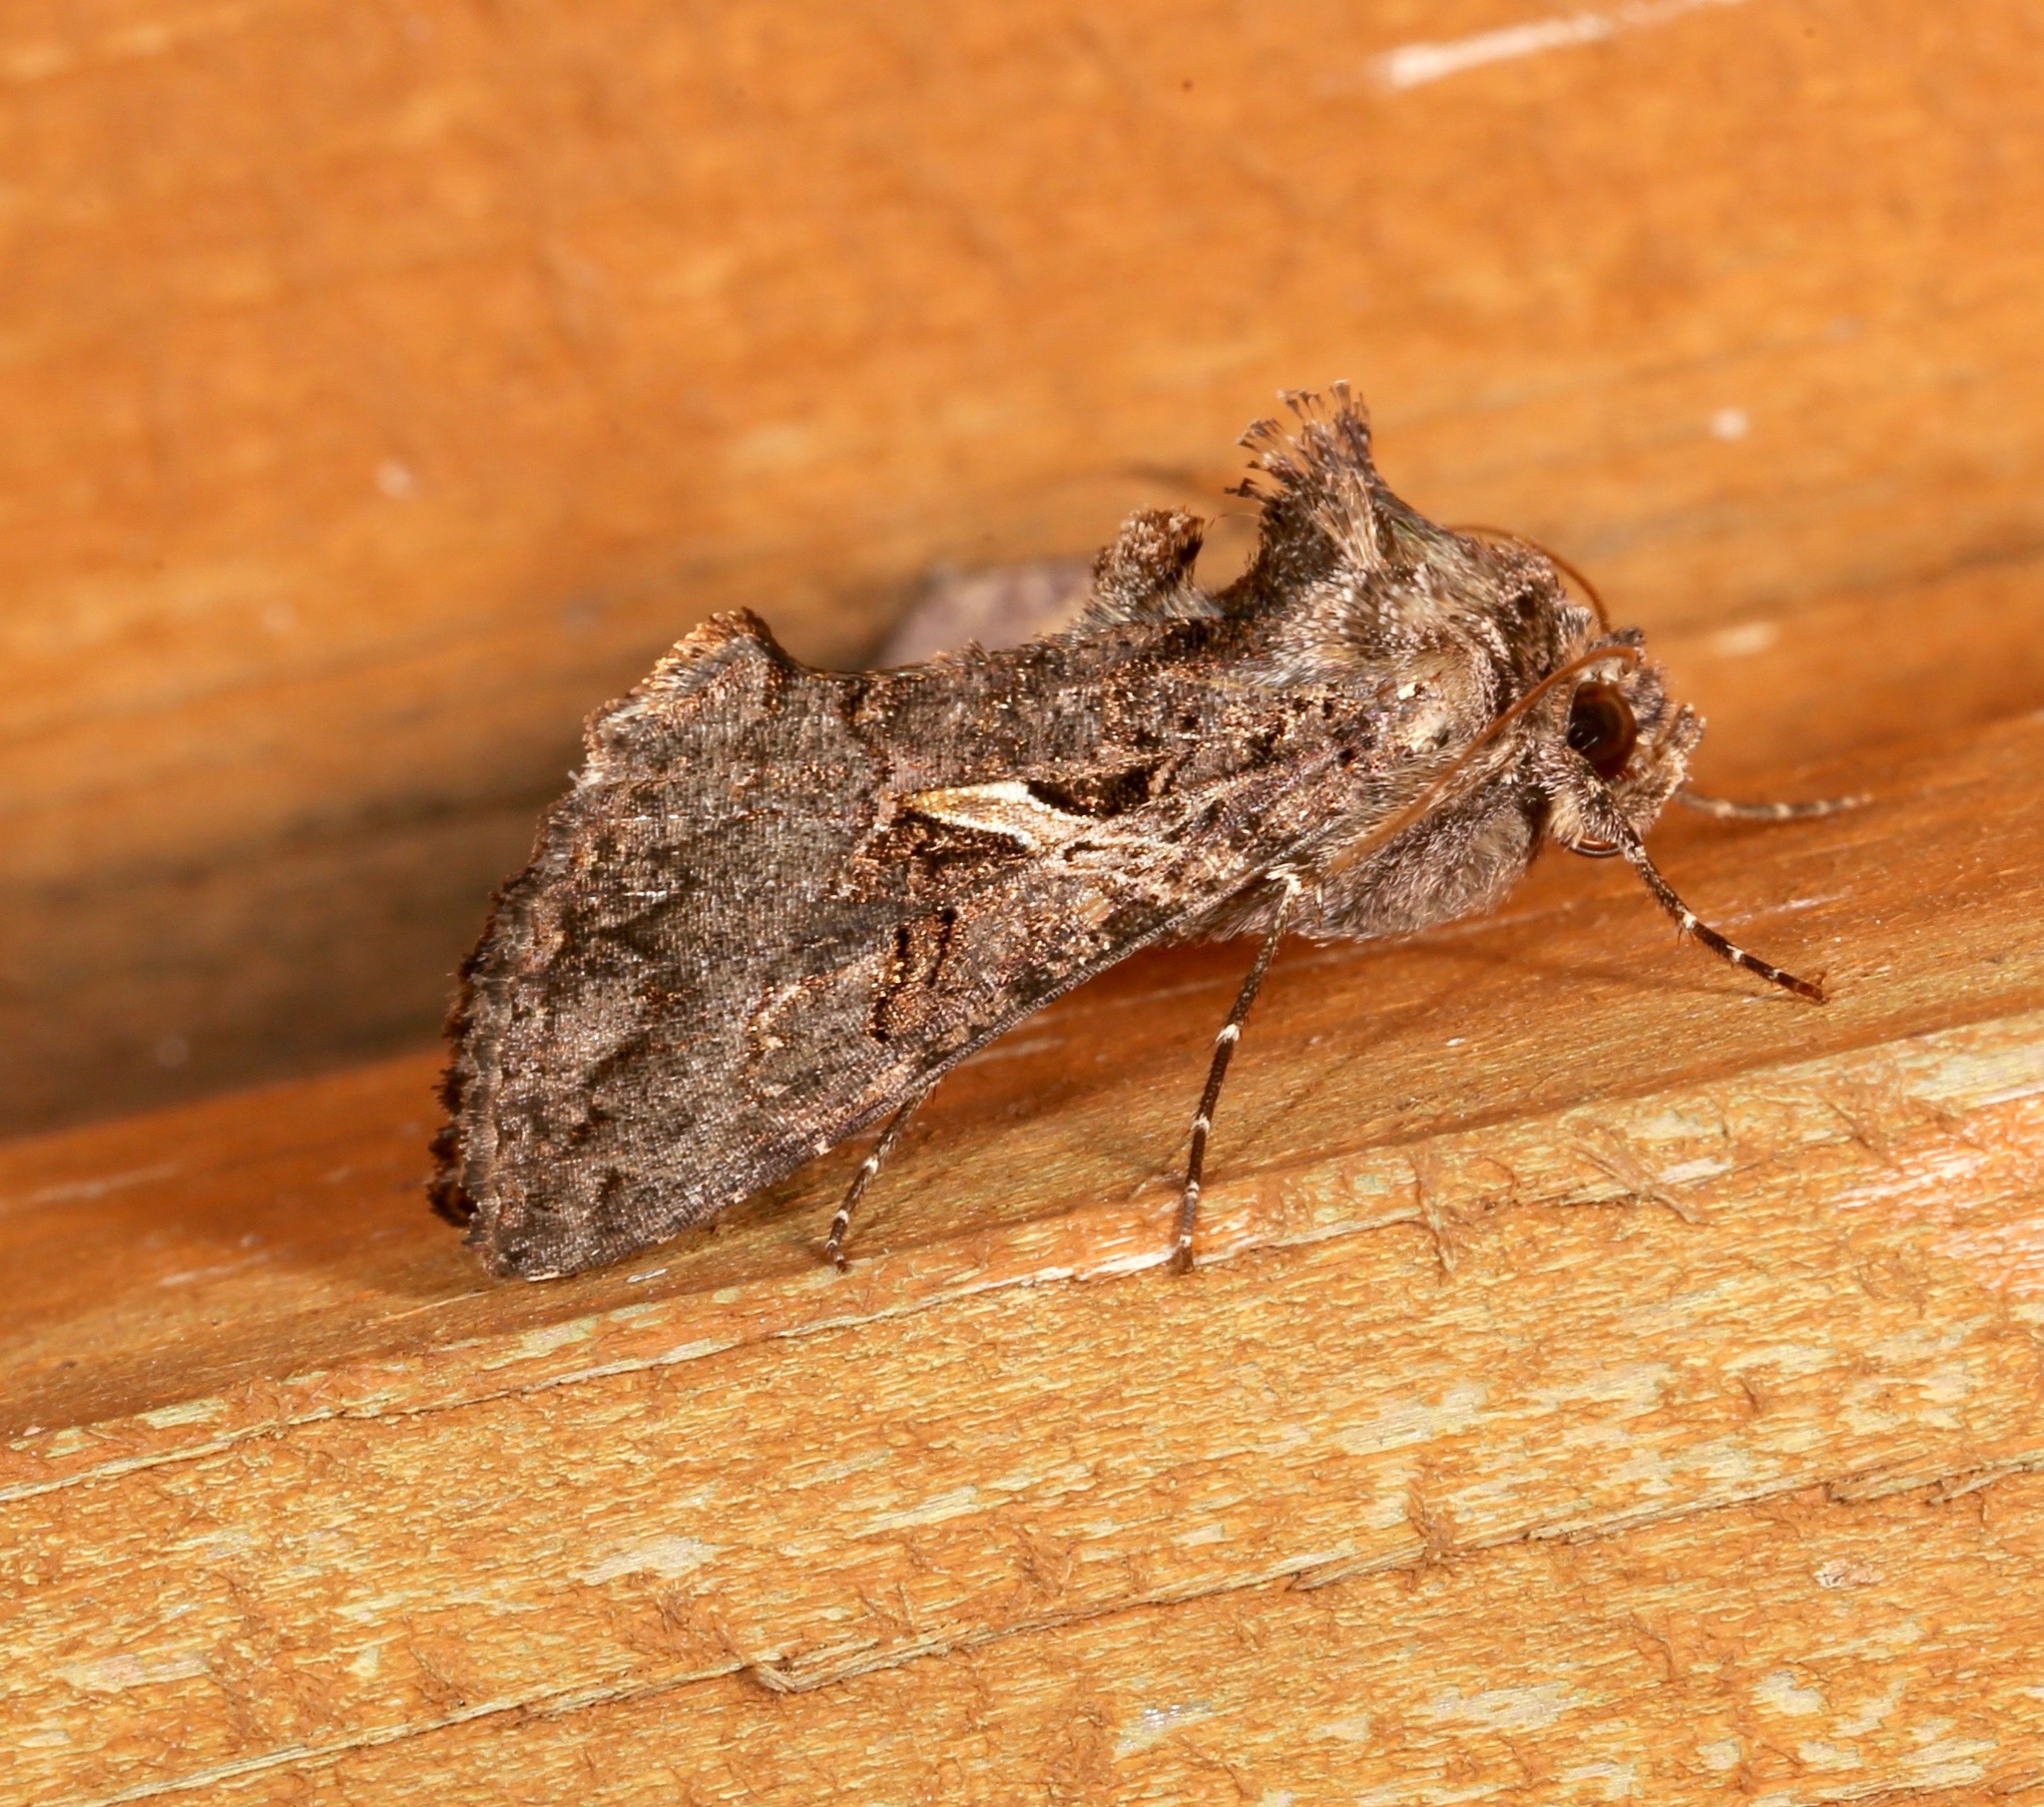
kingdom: Animalia
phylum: Arthropoda
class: Insecta
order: Lepidoptera
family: Noctuidae
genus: Ctenoplusia
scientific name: Ctenoplusia oxygramma
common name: Sharp-stigma looper moth
